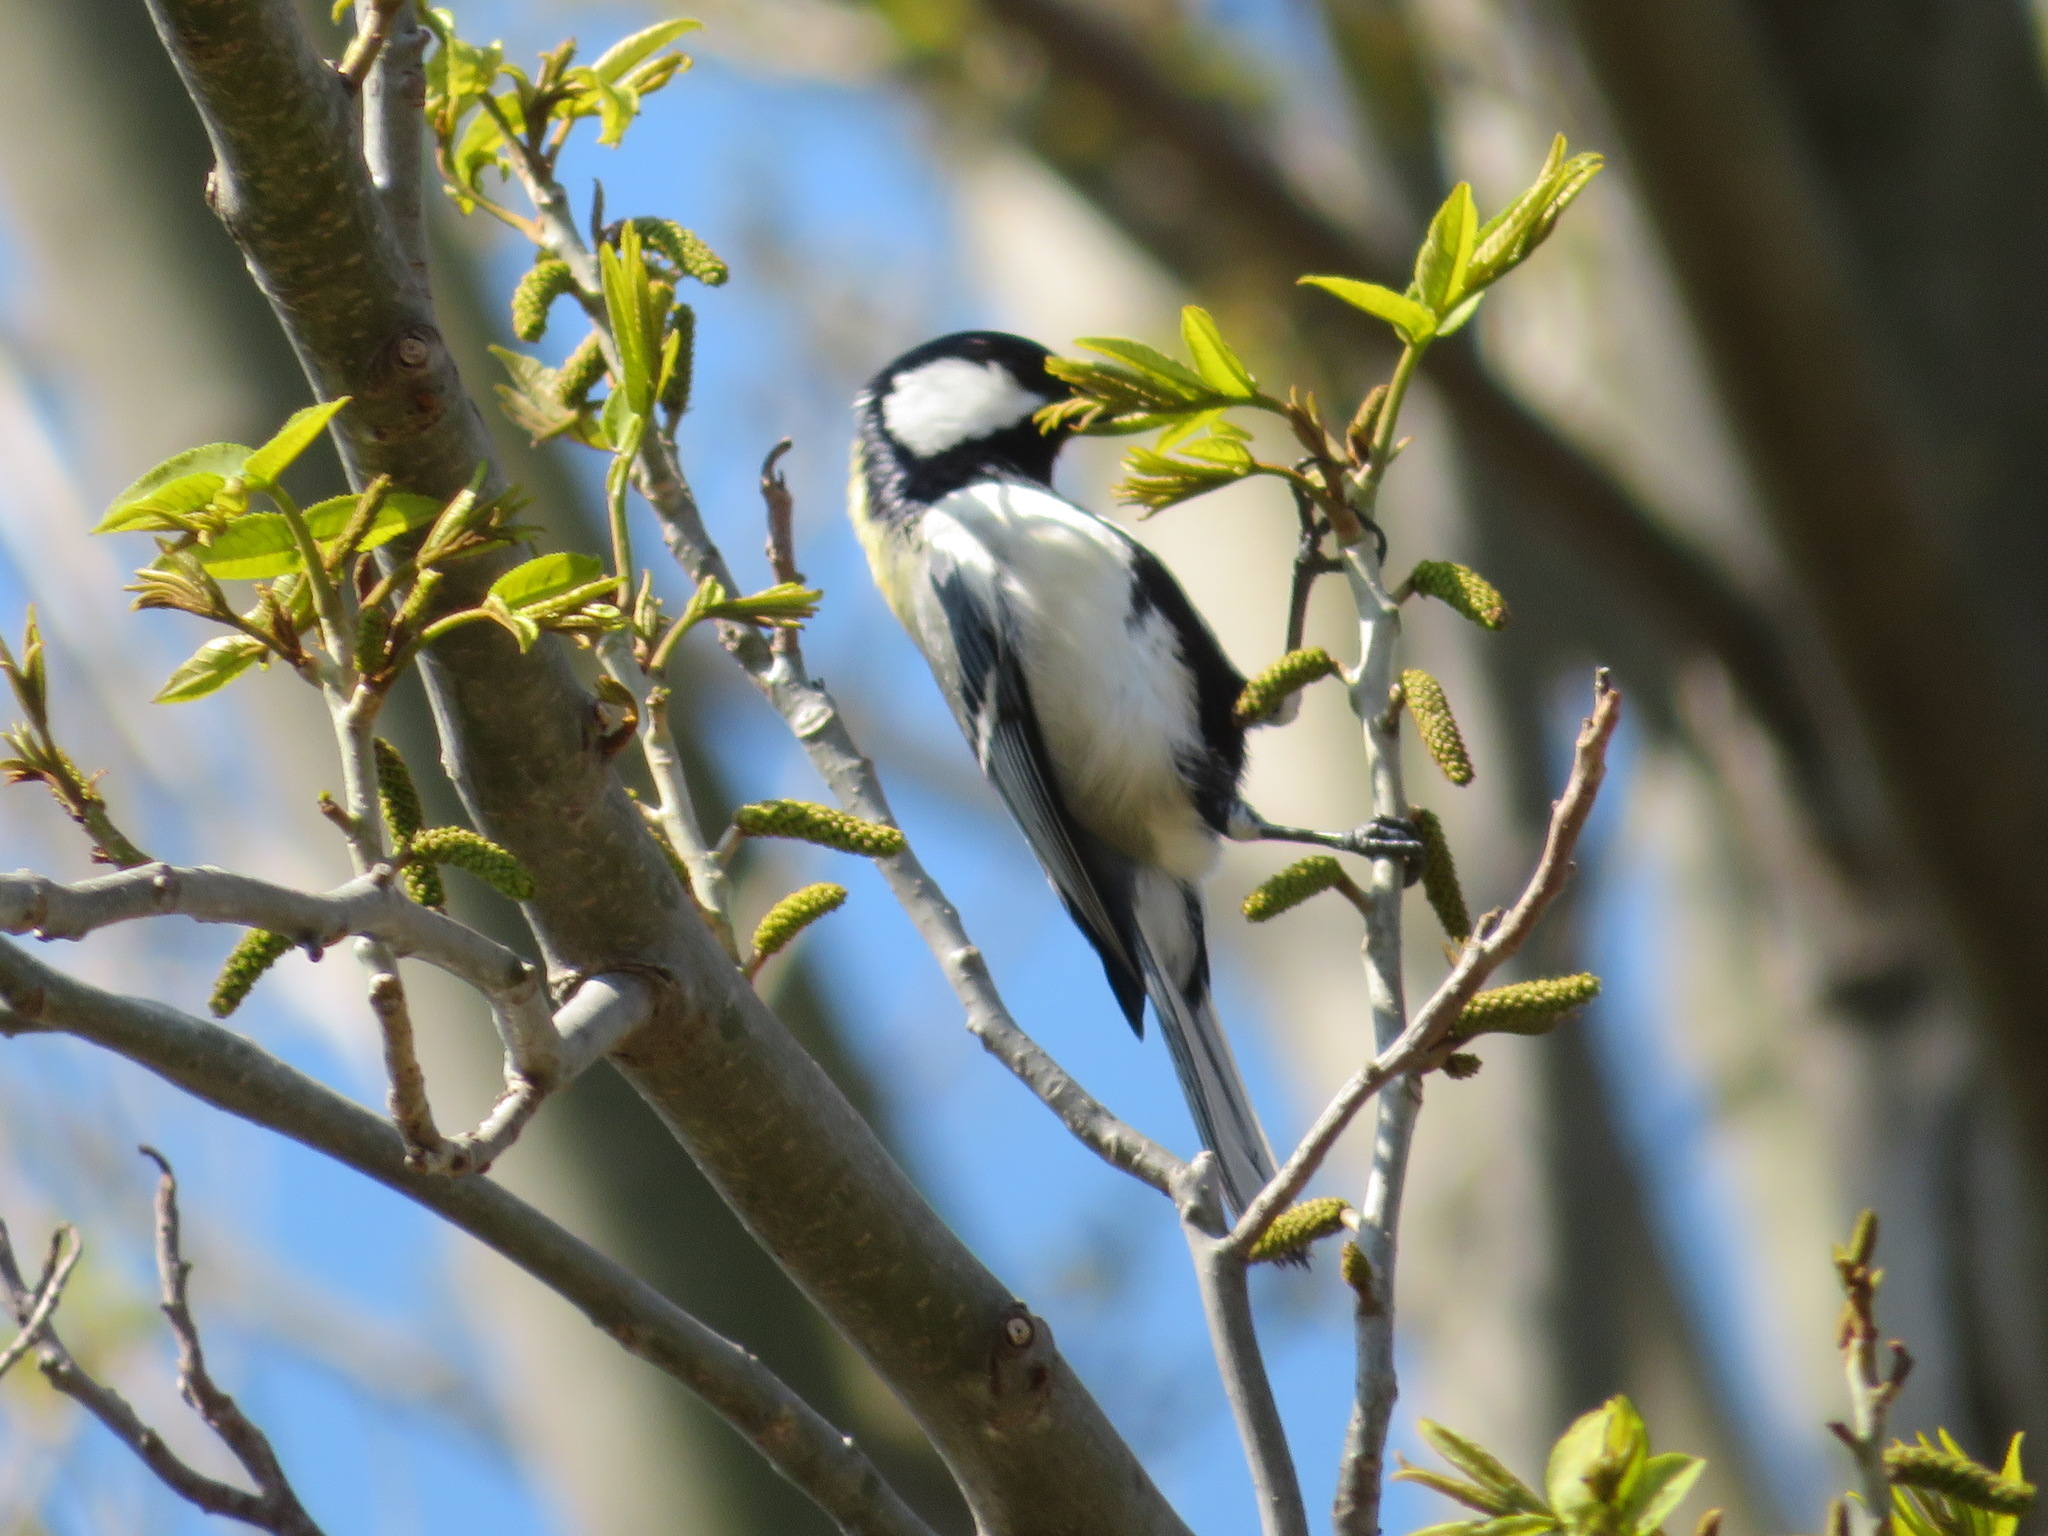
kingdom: Animalia
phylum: Chordata
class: Aves
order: Passeriformes
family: Paridae
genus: Parus
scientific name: Parus minor
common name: Japanese tit
